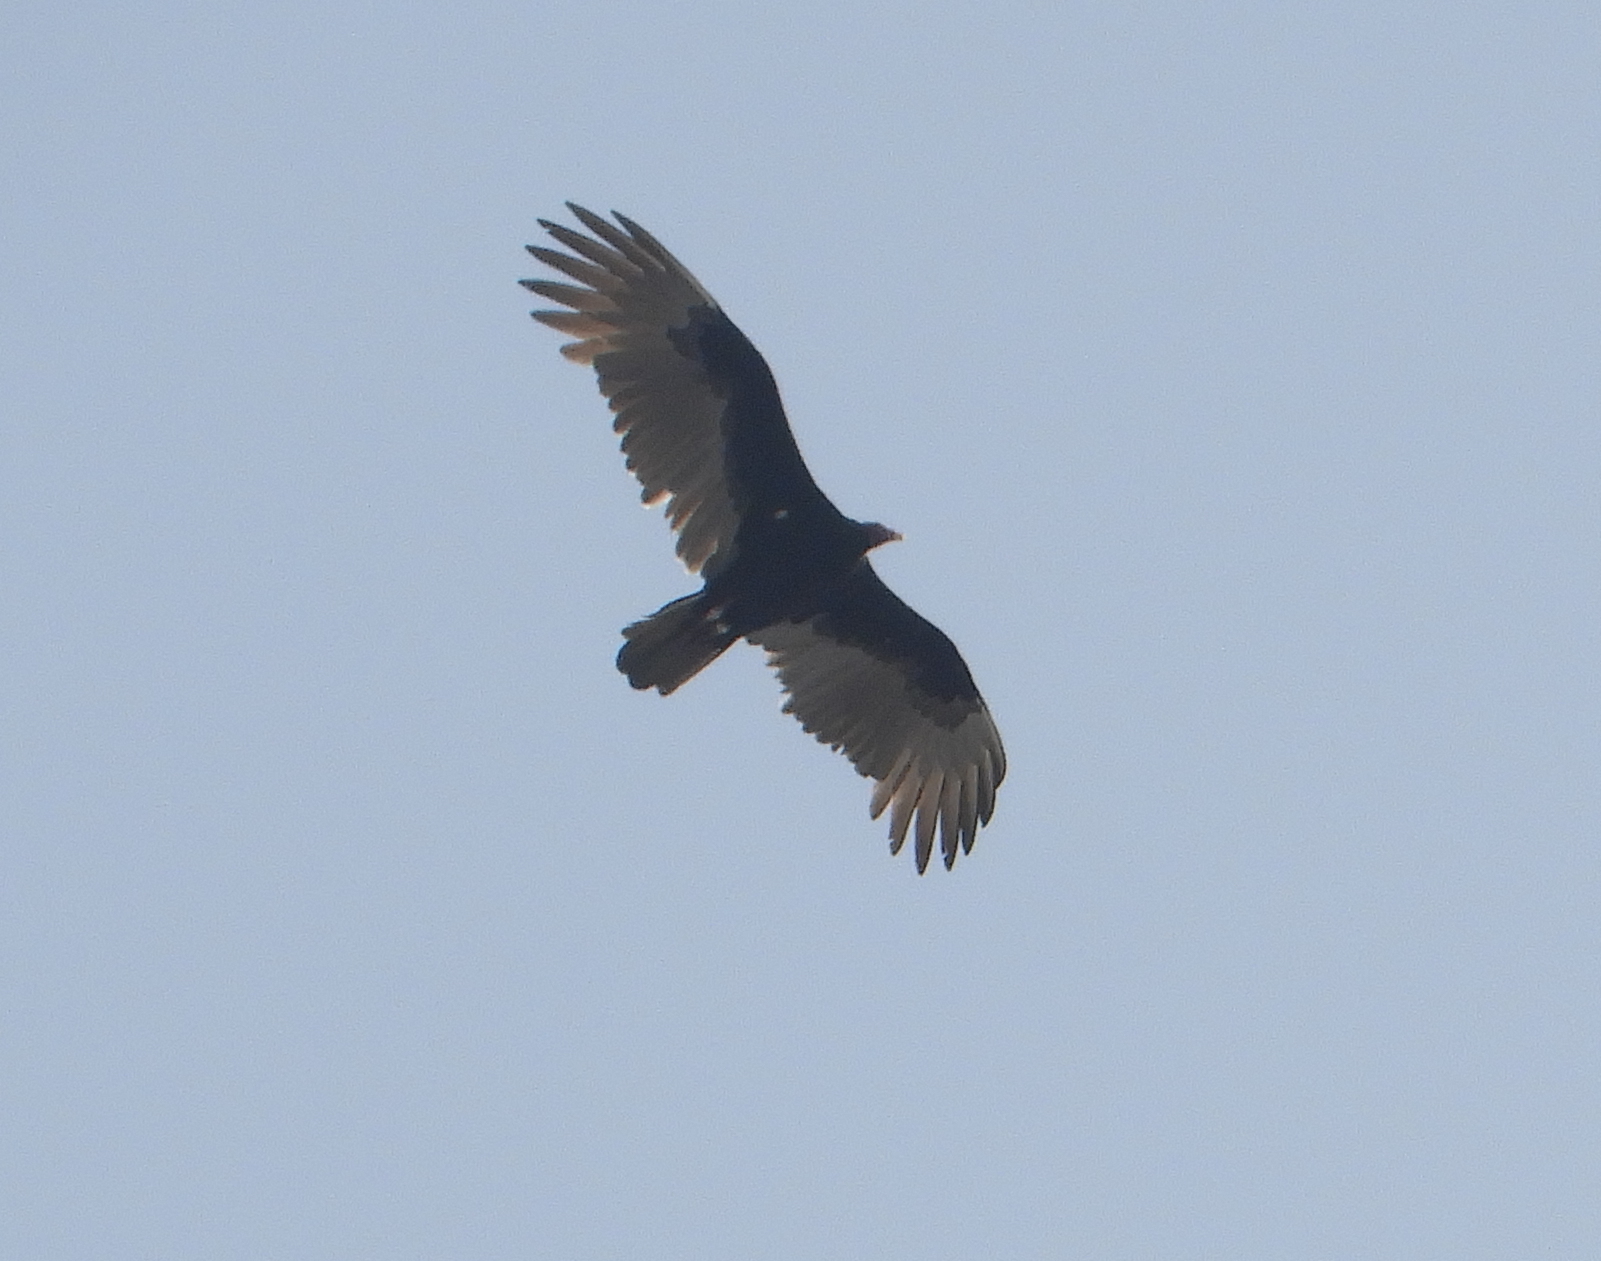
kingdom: Animalia
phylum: Chordata
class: Aves
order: Accipitriformes
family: Cathartidae
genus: Cathartes
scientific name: Cathartes aura
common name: Turkey vulture
